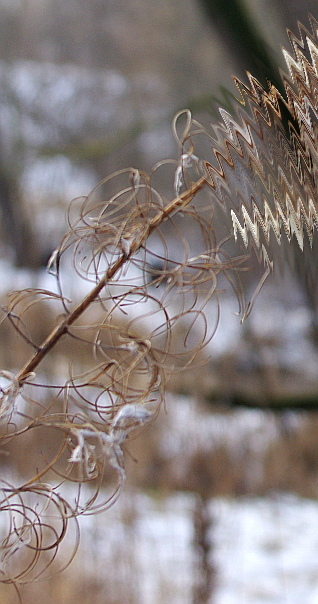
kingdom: Plantae
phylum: Tracheophyta
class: Magnoliopsida
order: Myrtales
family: Onagraceae
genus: Chamaenerion
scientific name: Chamaenerion angustifolium
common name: Fireweed
